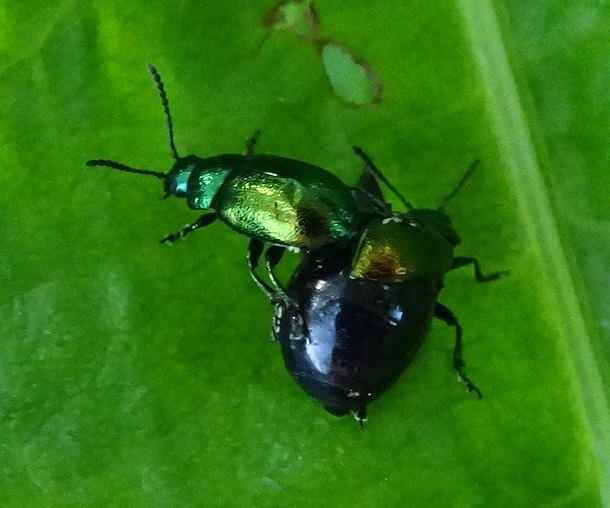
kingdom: Animalia
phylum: Arthropoda
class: Insecta
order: Coleoptera
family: Chrysomelidae
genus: Gastrophysa
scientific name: Gastrophysa viridula
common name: Green dock beetle
